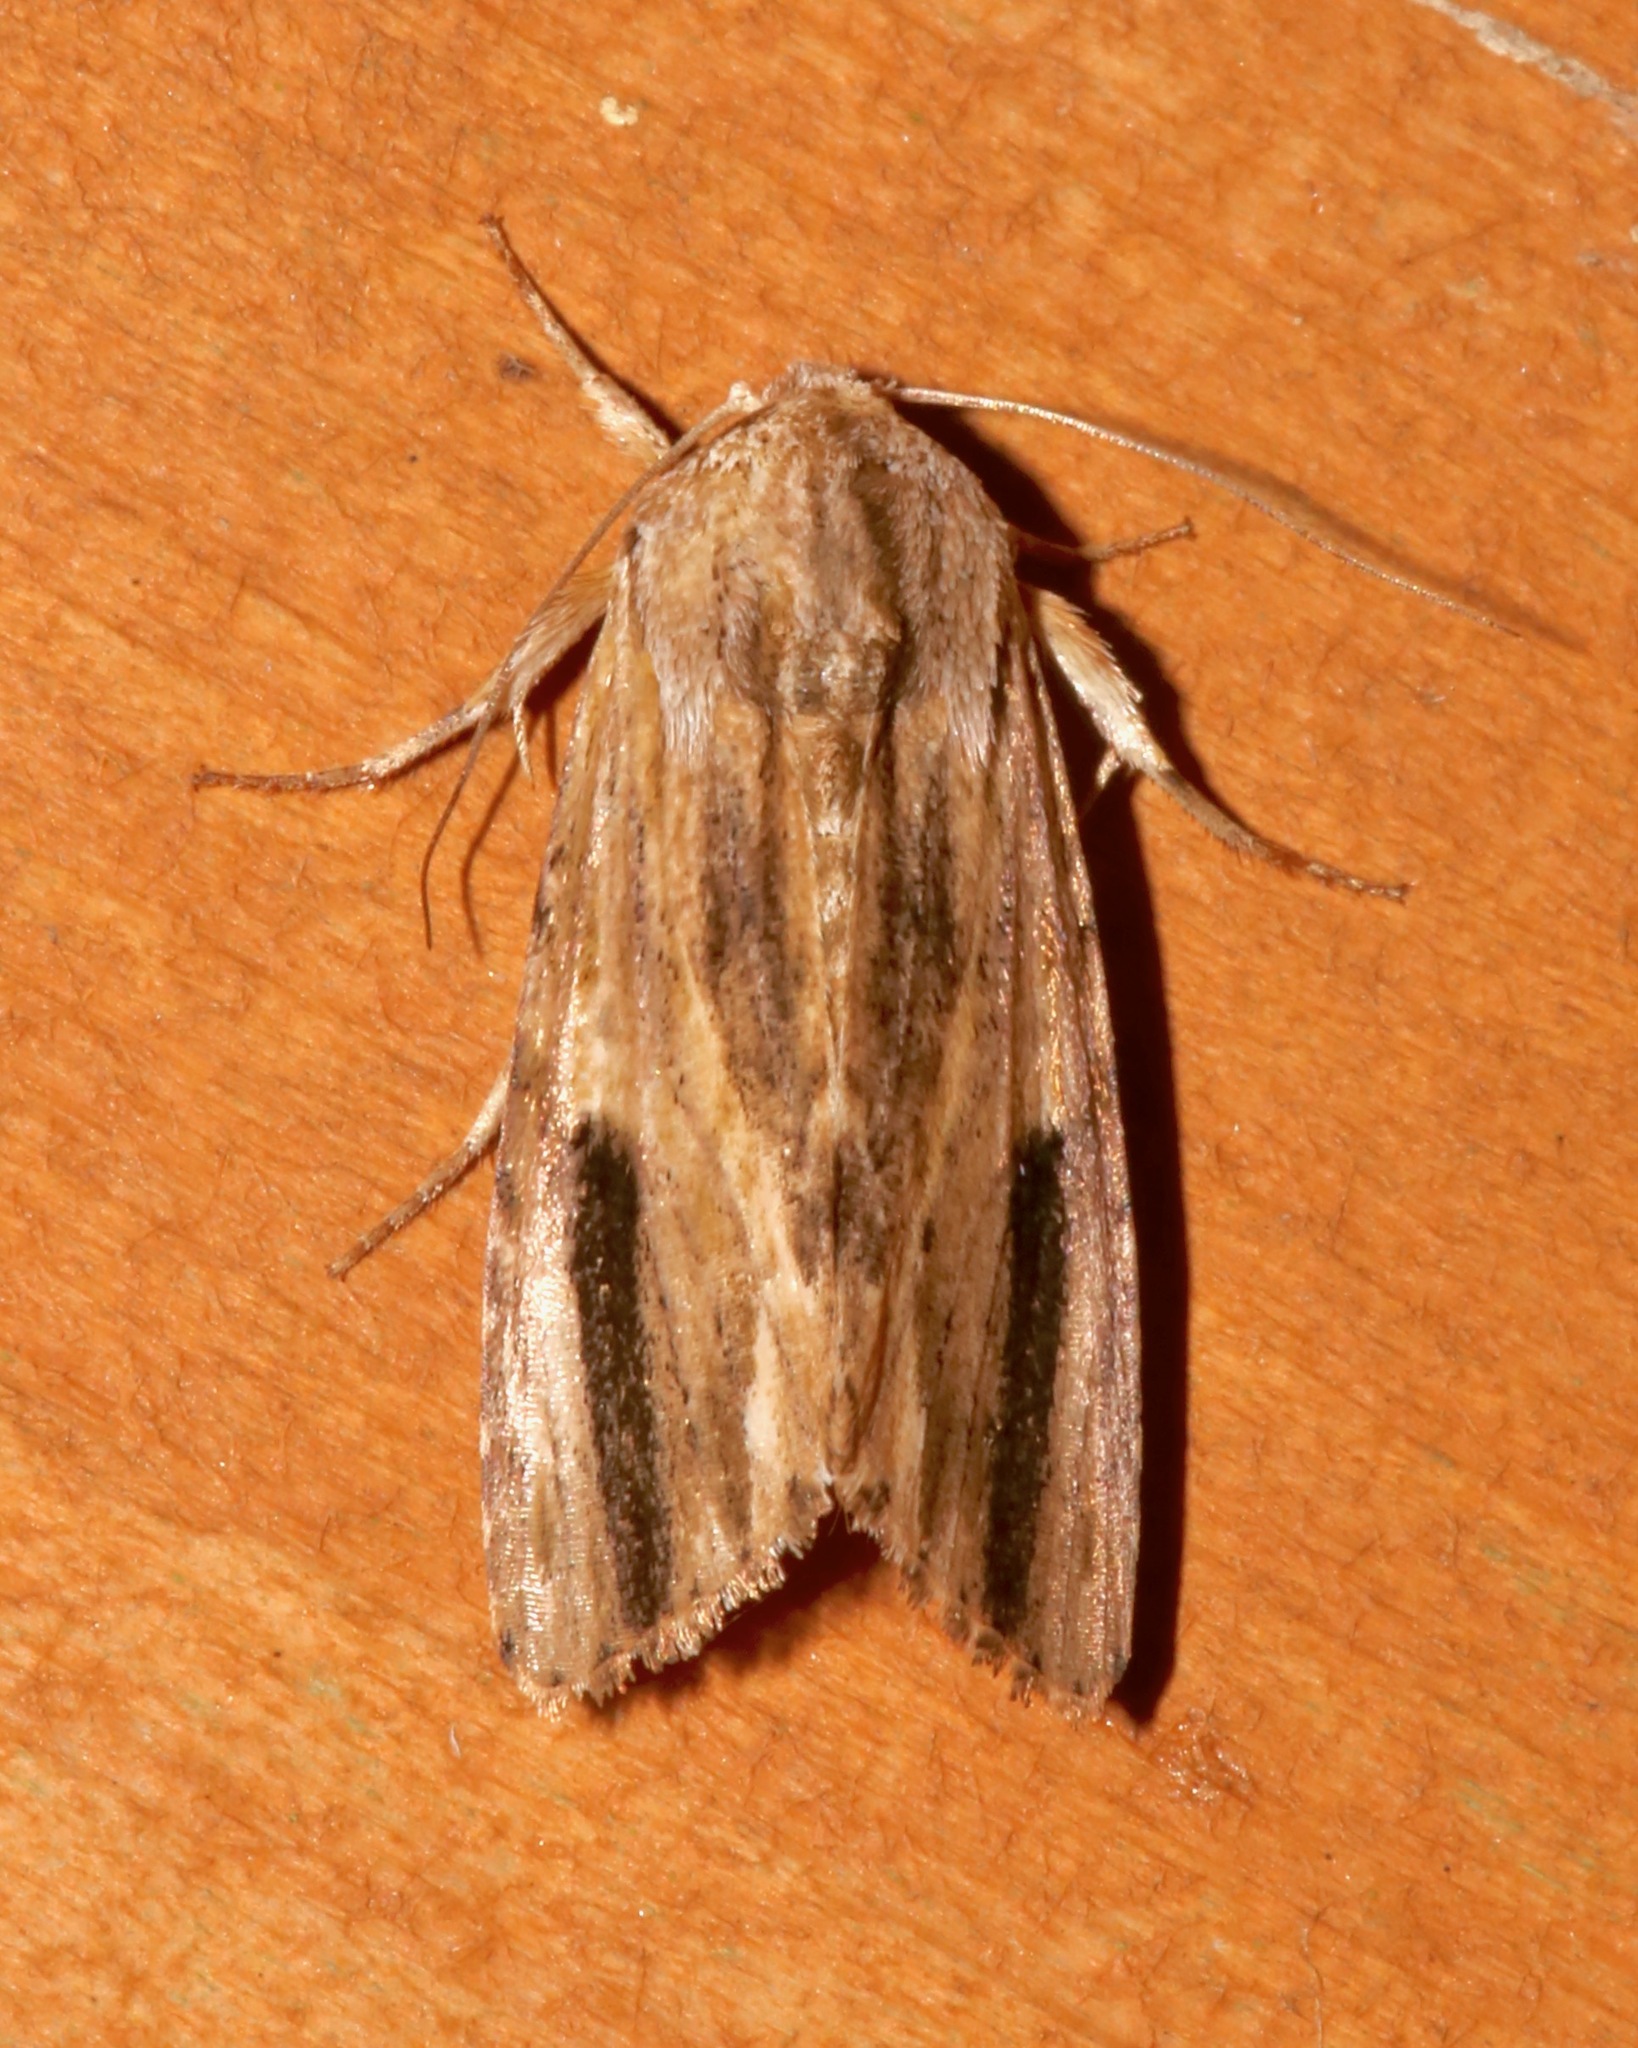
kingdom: Animalia
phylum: Arthropoda
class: Insecta
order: Lepidoptera
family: Noctuidae
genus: Spodoptera
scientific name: Spodoptera eridania
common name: Southern army worm
